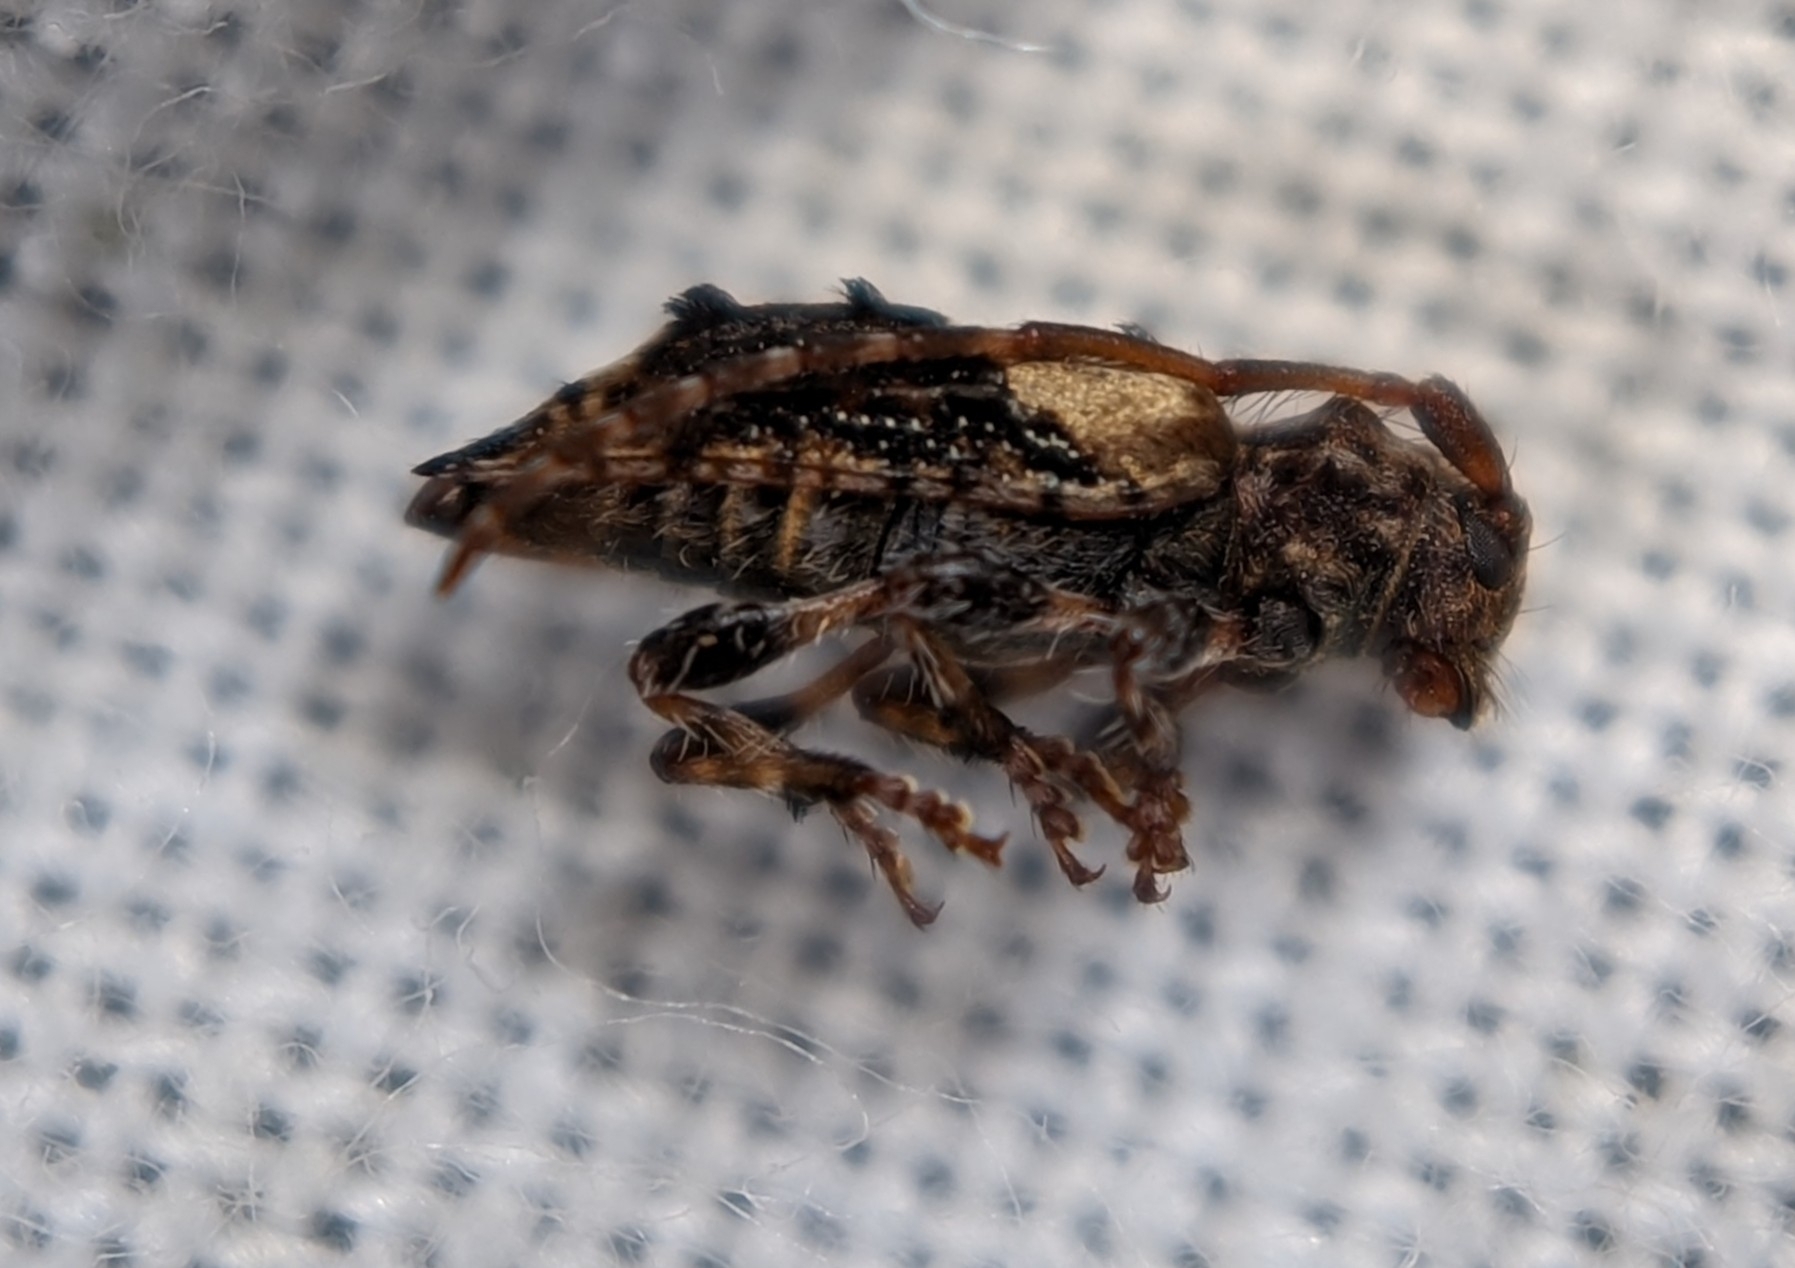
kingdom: Animalia
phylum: Arthropoda
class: Insecta
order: Coleoptera
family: Cerambycidae
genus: Pogonocherus
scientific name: Pogonocherus hispidus
